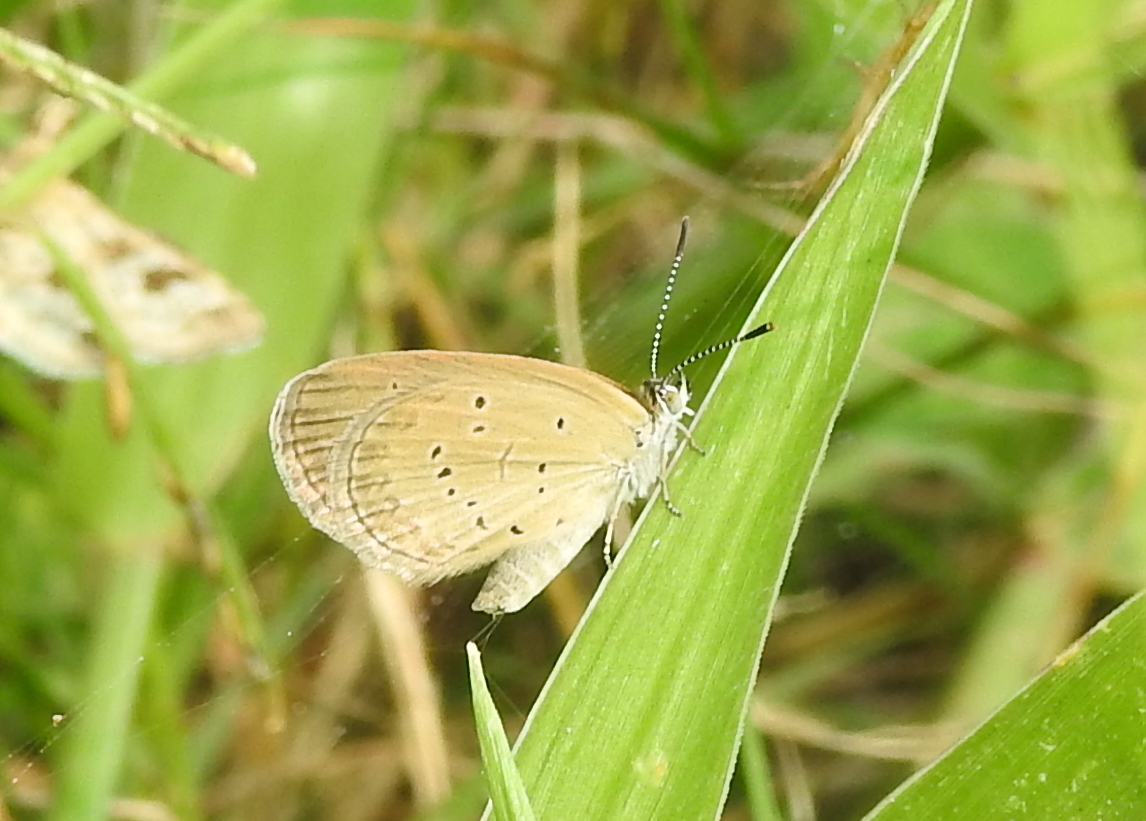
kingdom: Animalia
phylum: Arthropoda
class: Insecta
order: Lepidoptera
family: Lycaenidae
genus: Zizina
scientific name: Zizina otis
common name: Lesser grass blue
